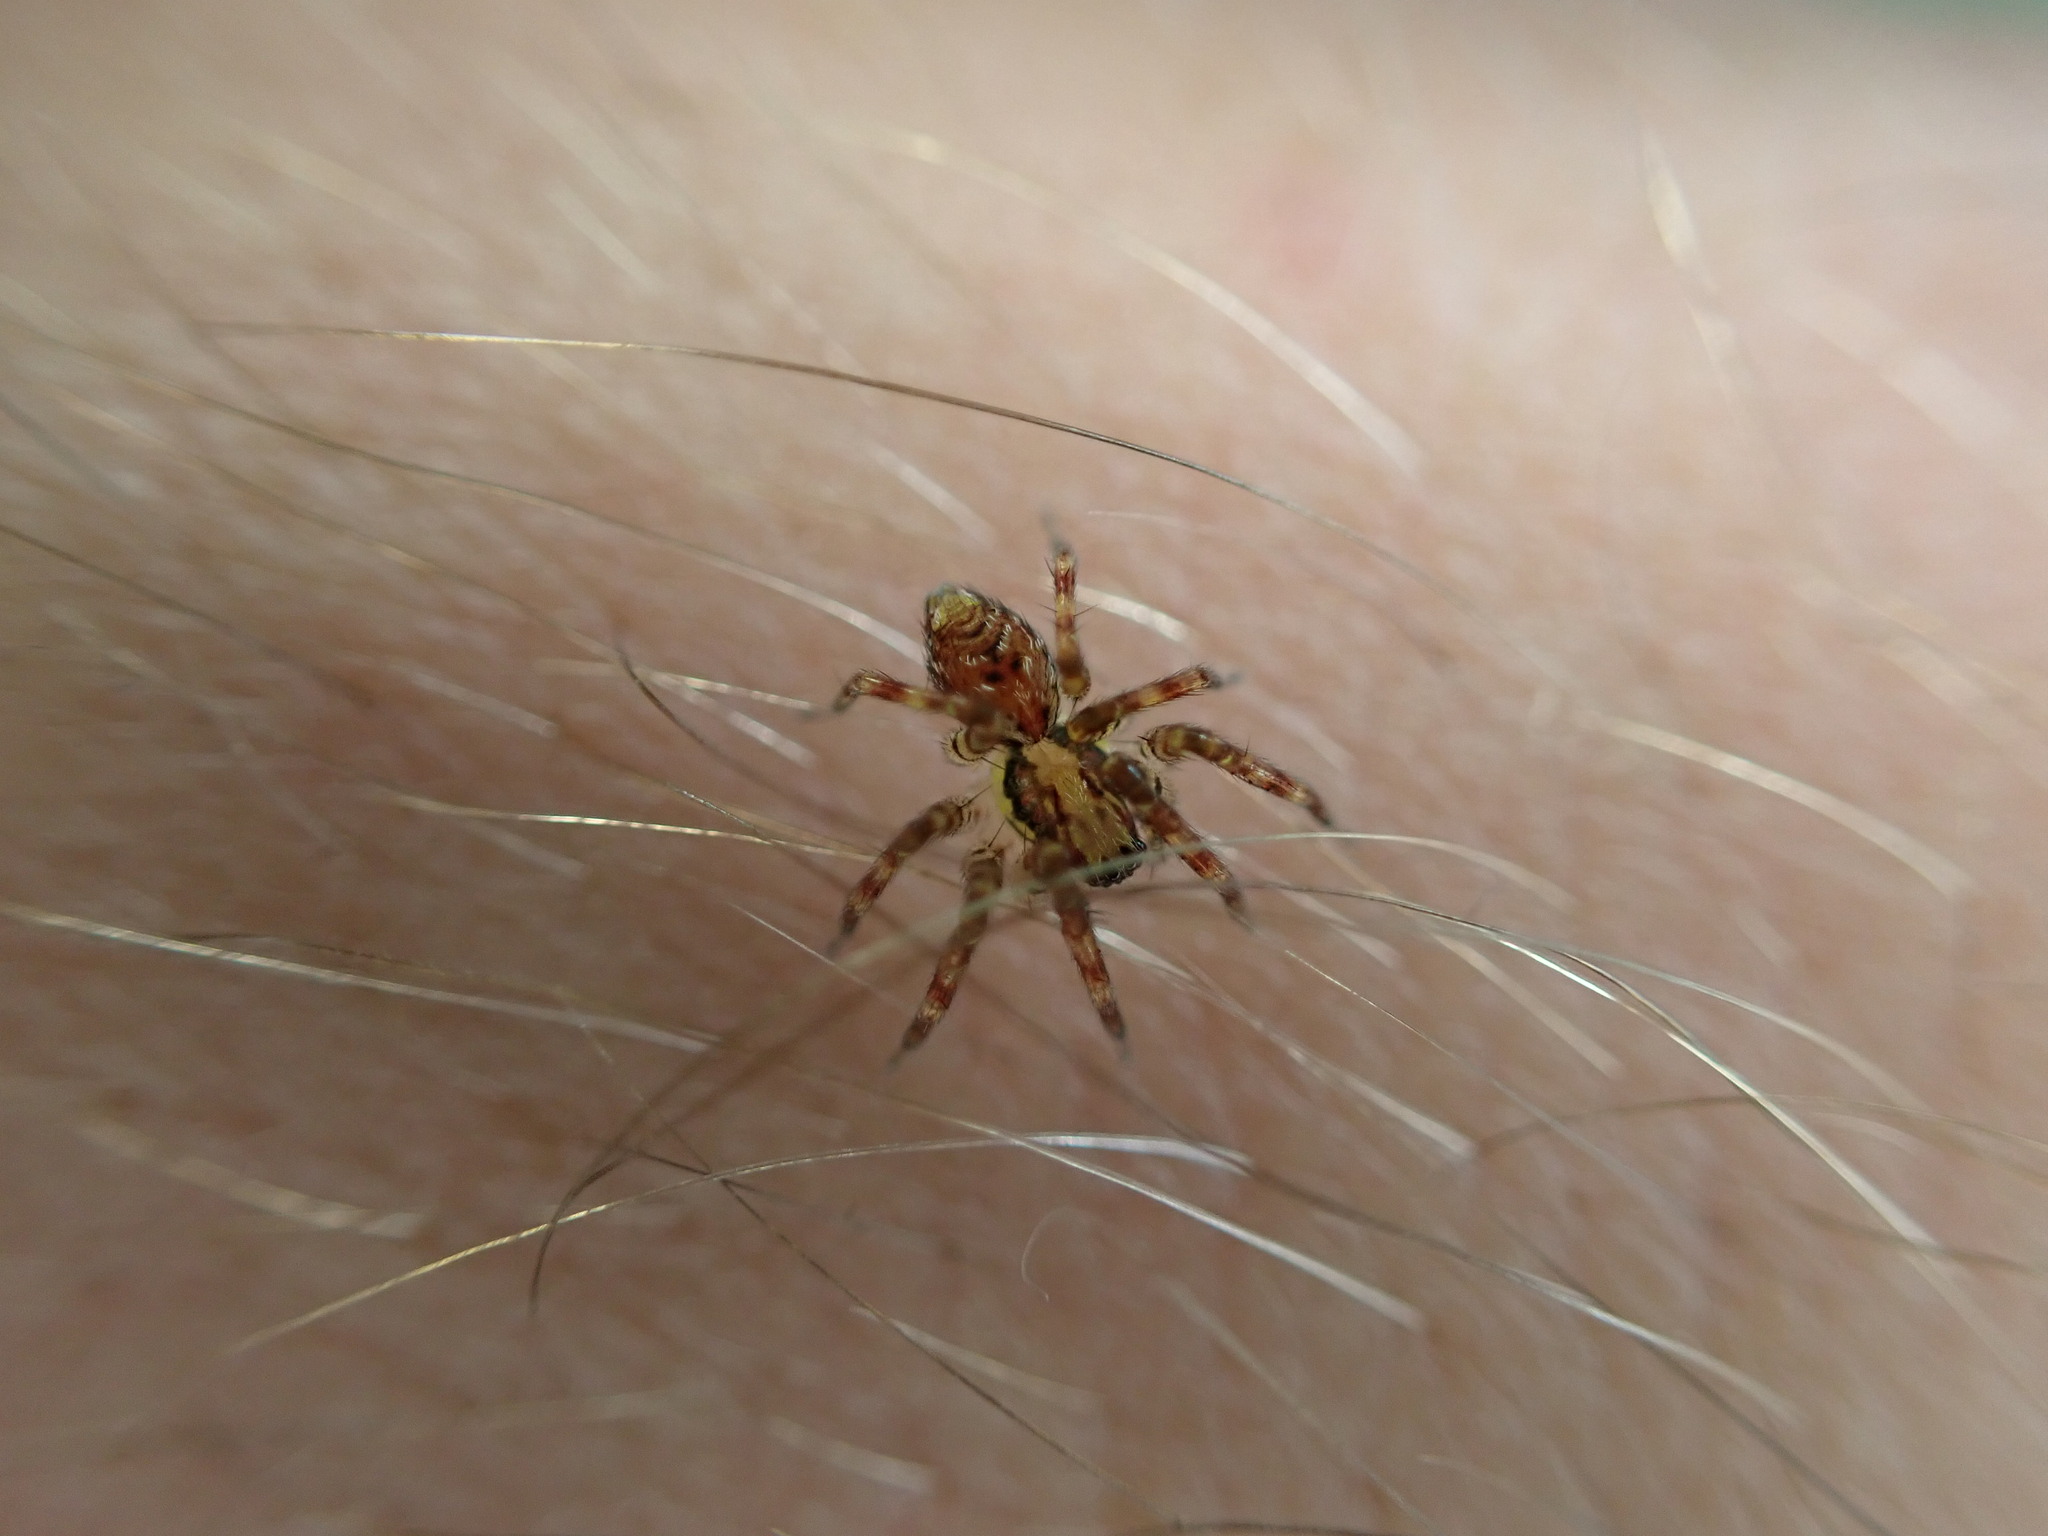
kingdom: Animalia
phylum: Arthropoda
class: Arachnida
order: Araneae
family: Cybaeidae
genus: Dirksia
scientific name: Dirksia cinctipes
